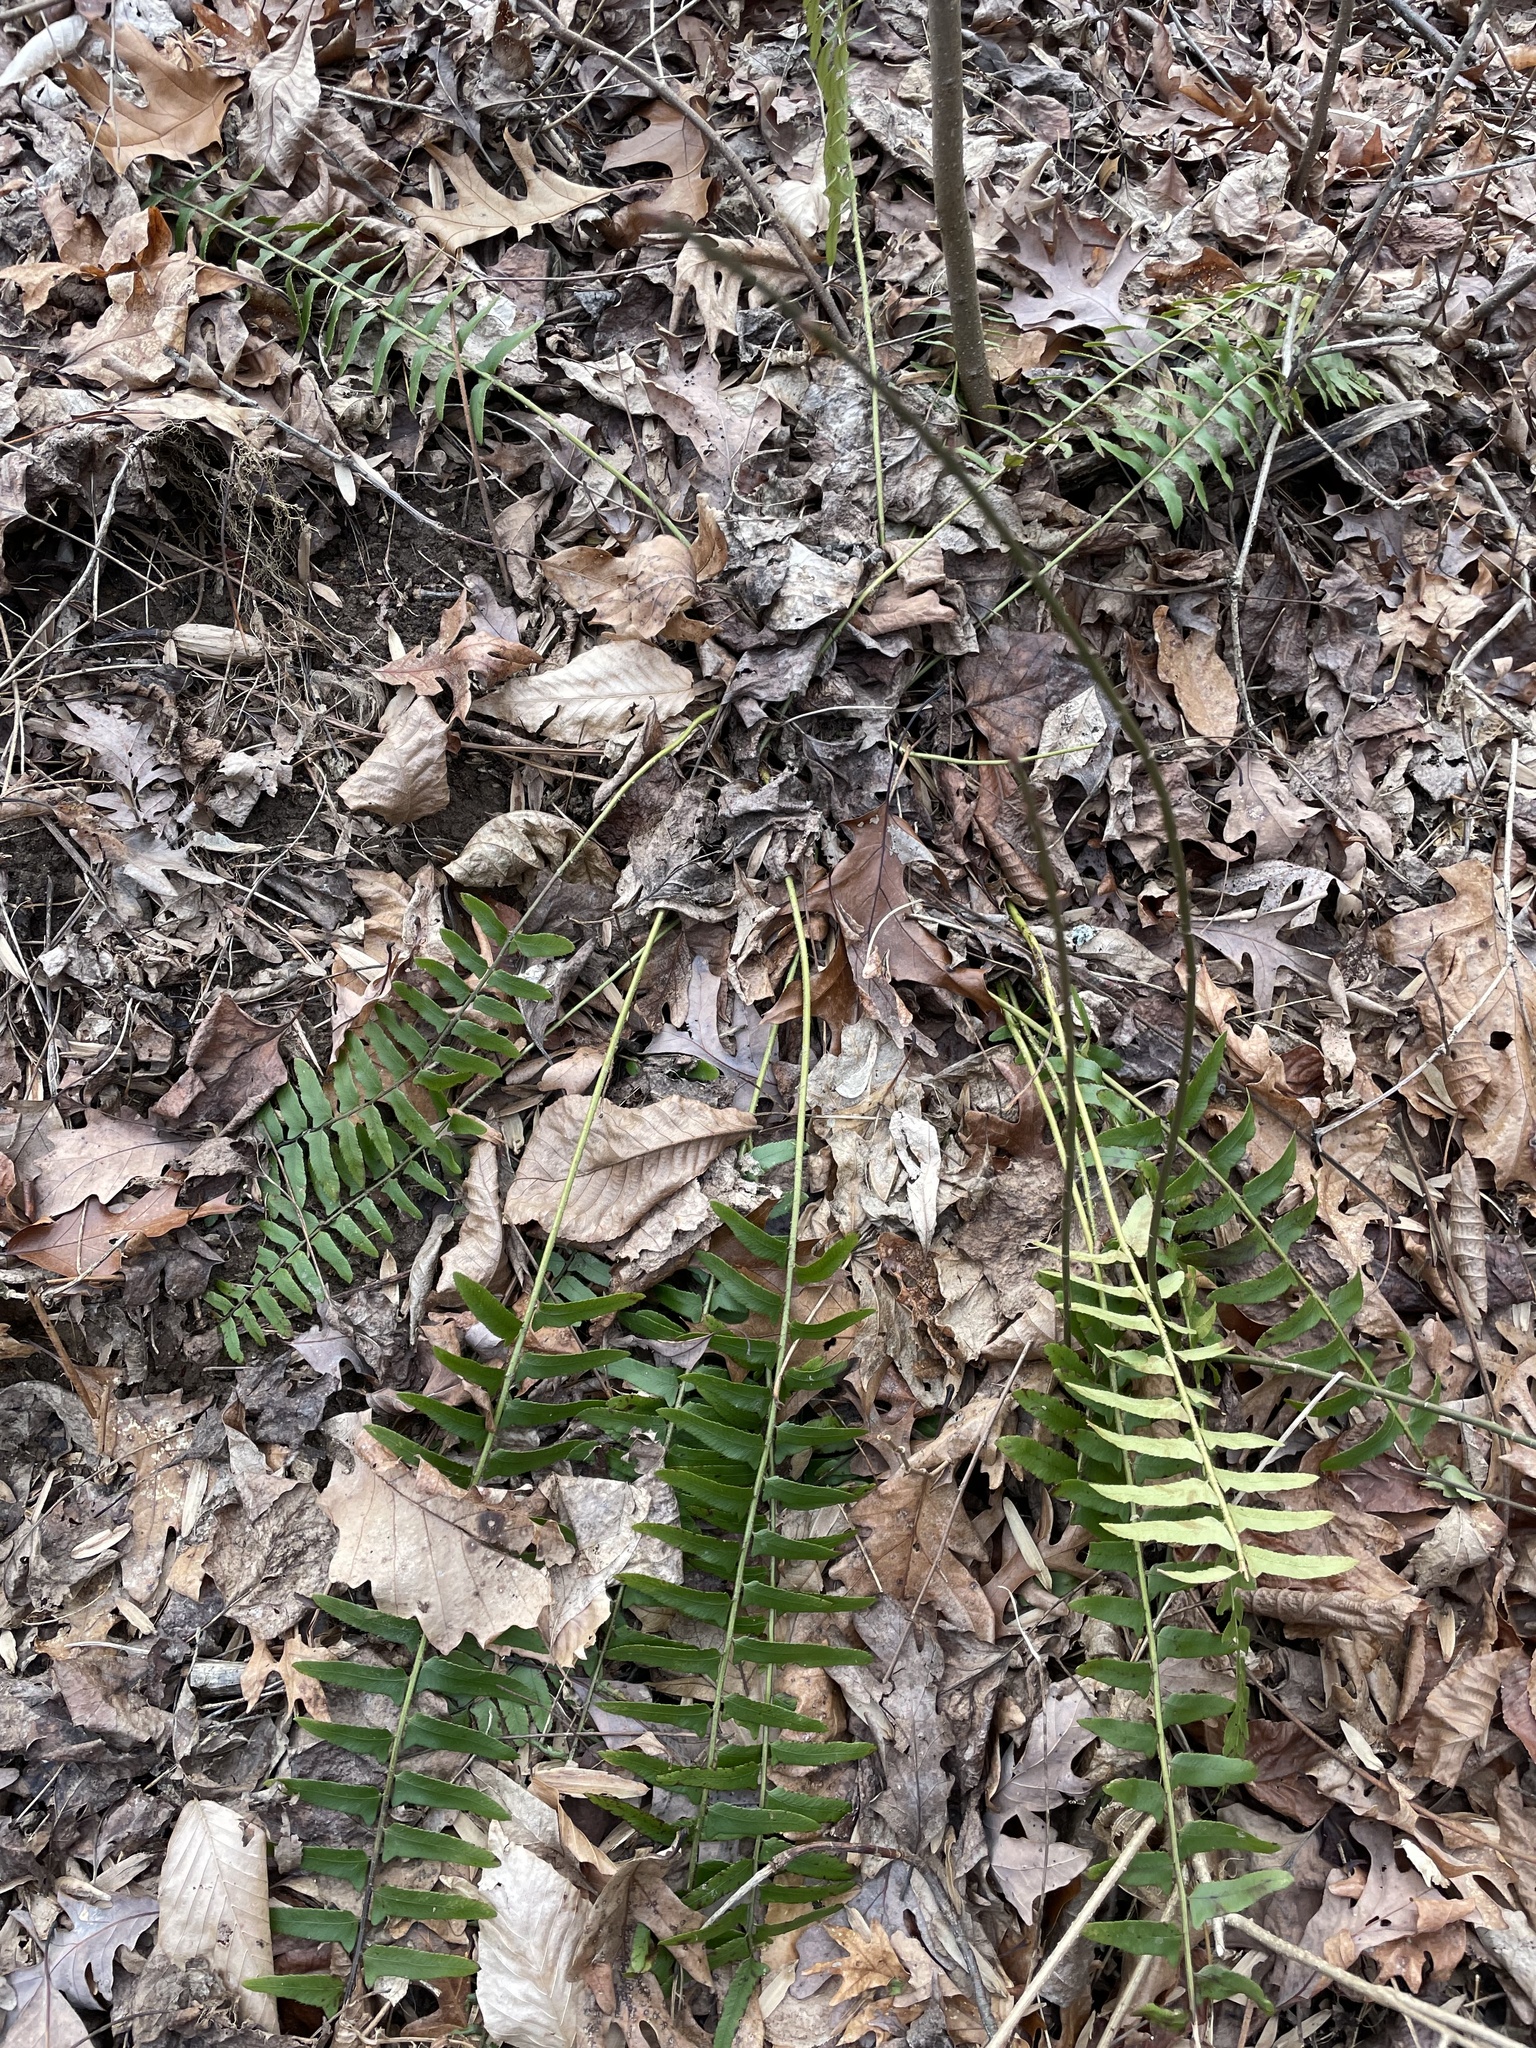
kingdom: Plantae
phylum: Tracheophyta
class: Polypodiopsida
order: Polypodiales
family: Dryopteridaceae
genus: Polystichum
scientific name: Polystichum acrostichoides
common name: Christmas fern
